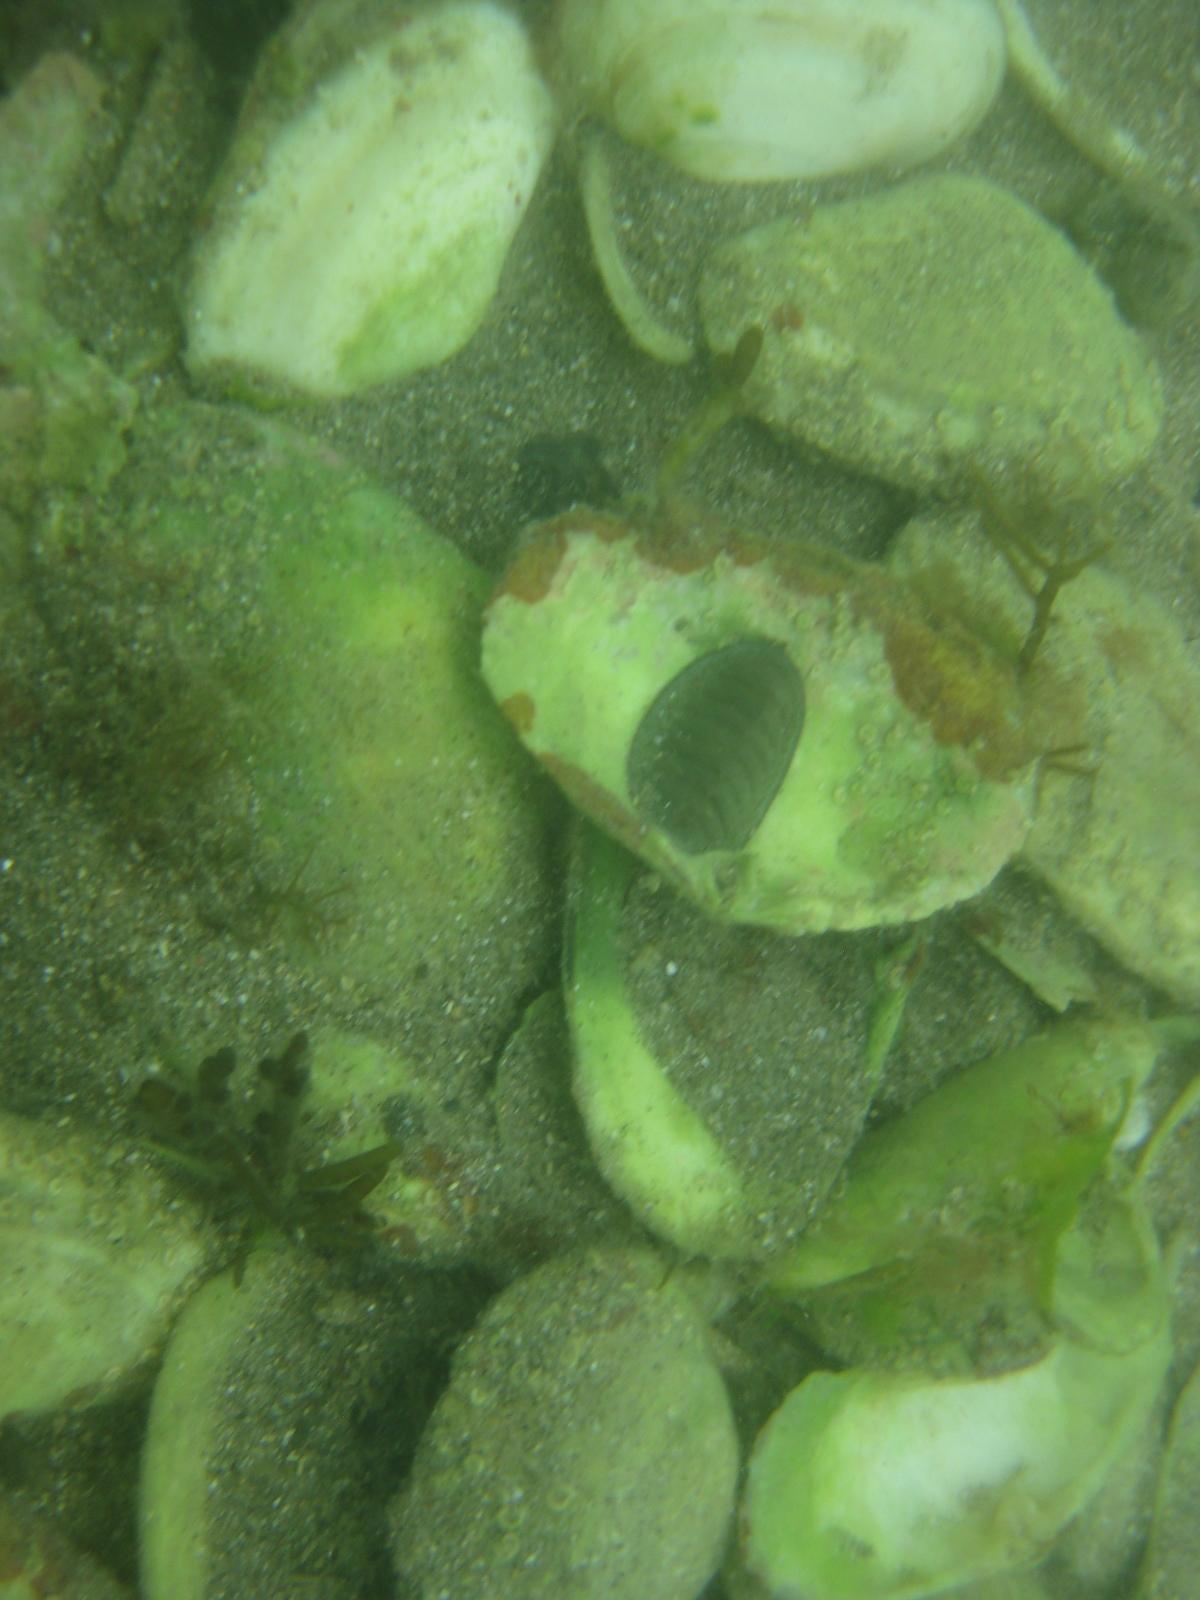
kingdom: Animalia
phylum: Mollusca
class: Polyplacophora
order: Chitonida
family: Chitonidae
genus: Chiton
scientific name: Chiton glaucus
